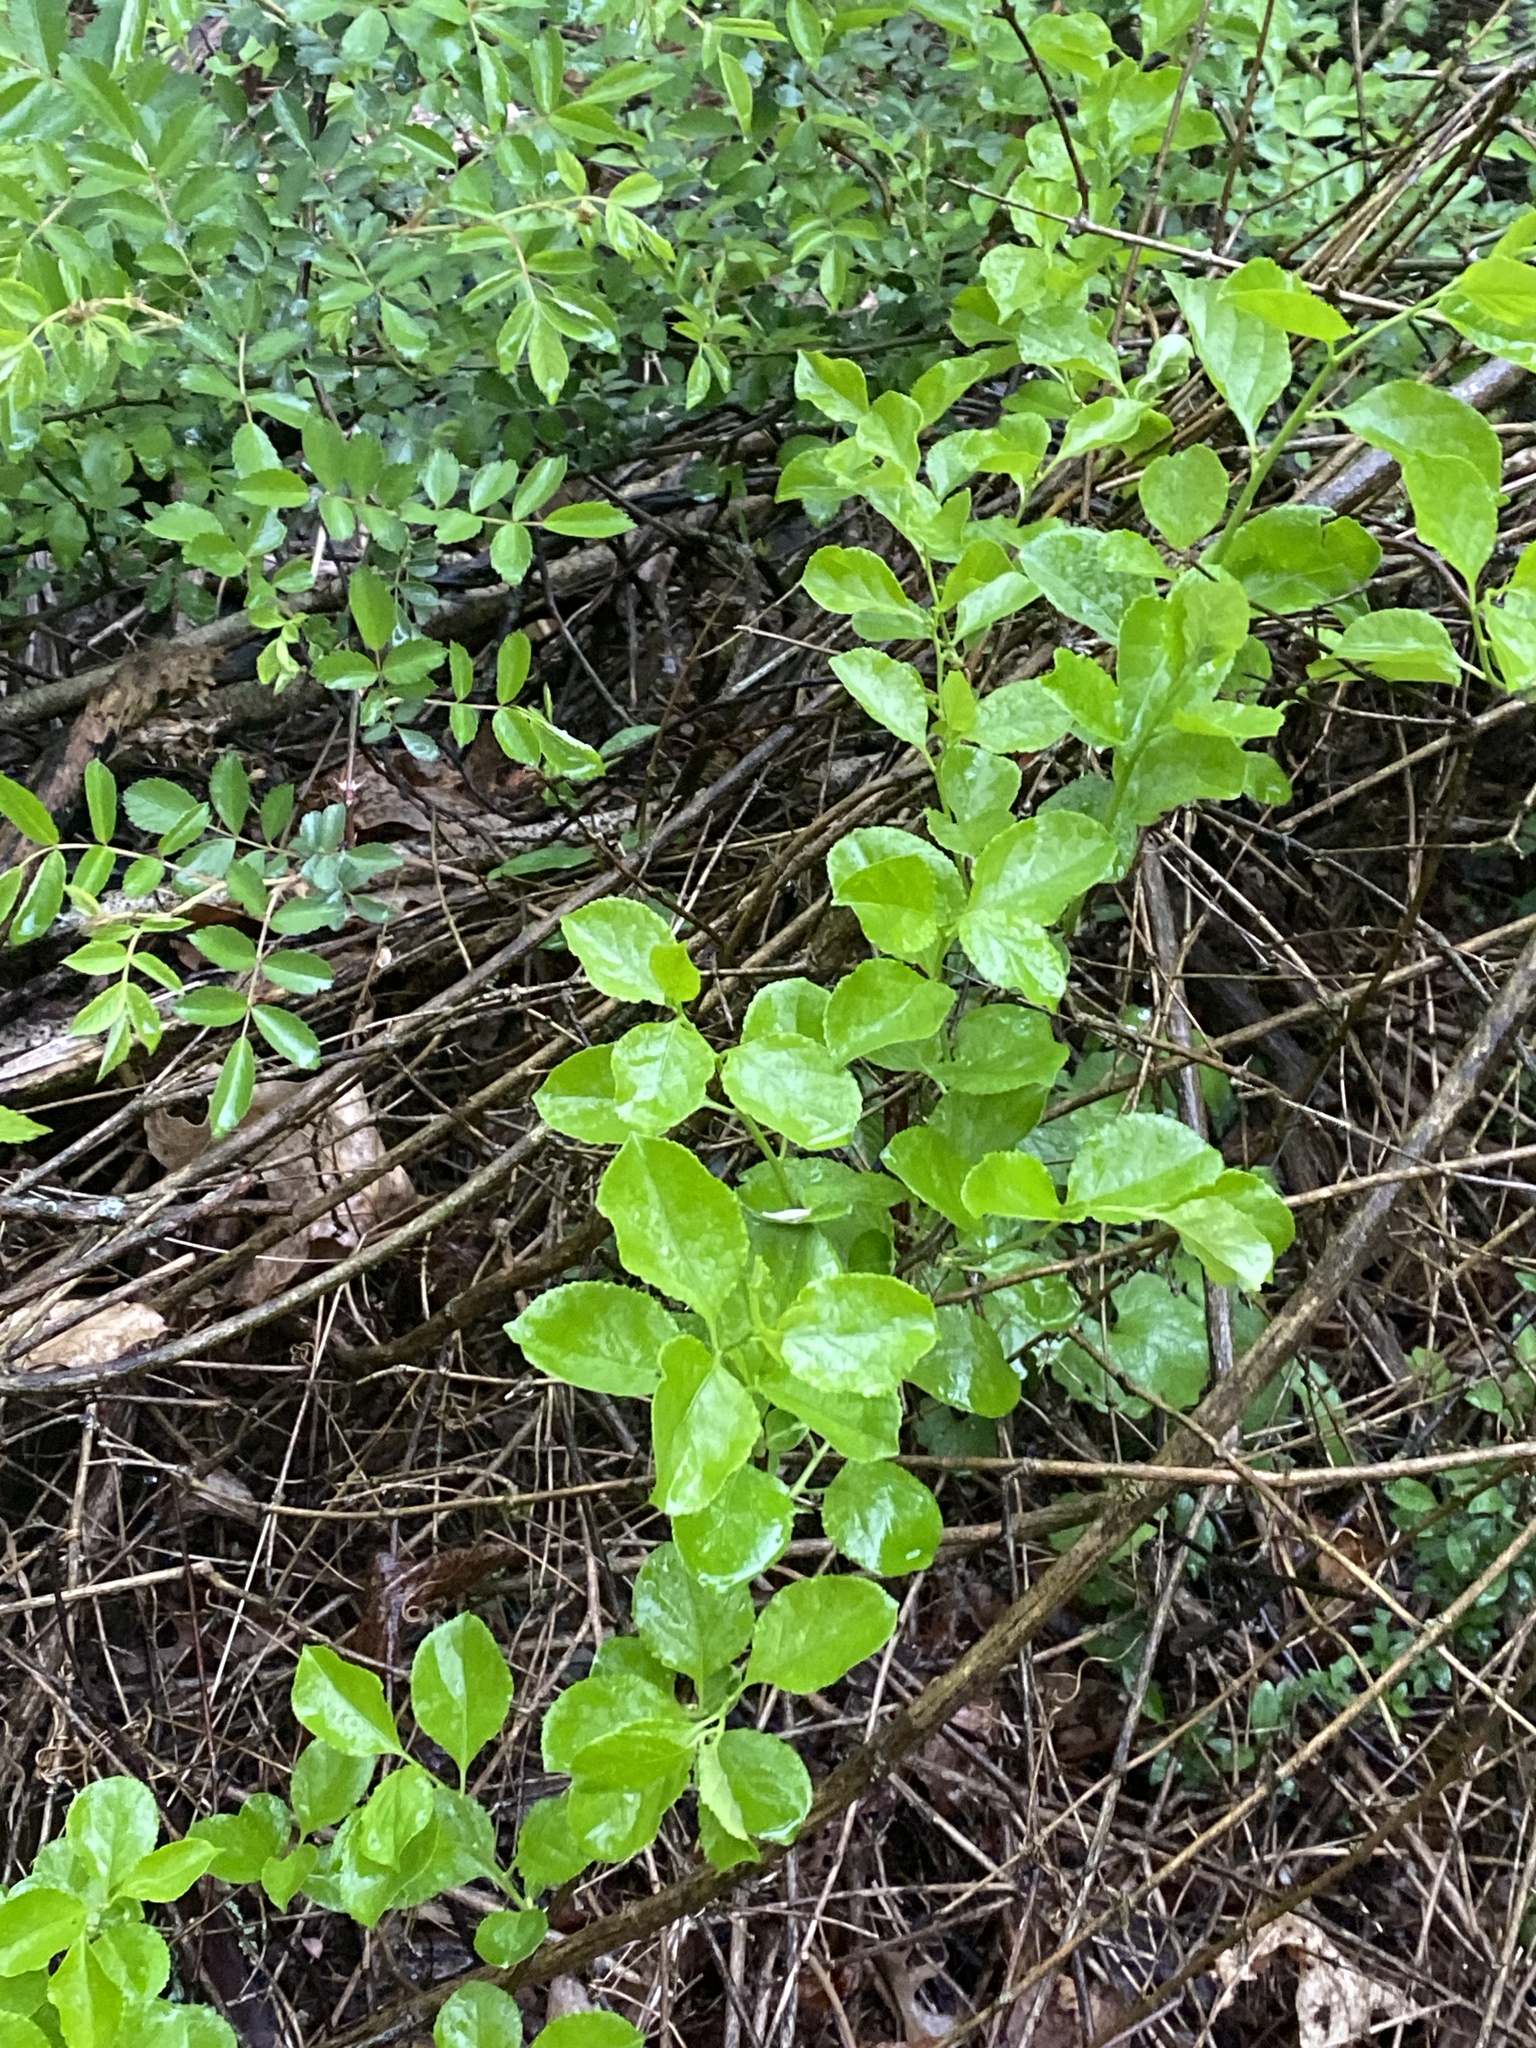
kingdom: Plantae
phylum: Tracheophyta
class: Magnoliopsida
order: Celastrales
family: Celastraceae
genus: Celastrus
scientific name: Celastrus orbiculatus
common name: Oriental bittersweet
